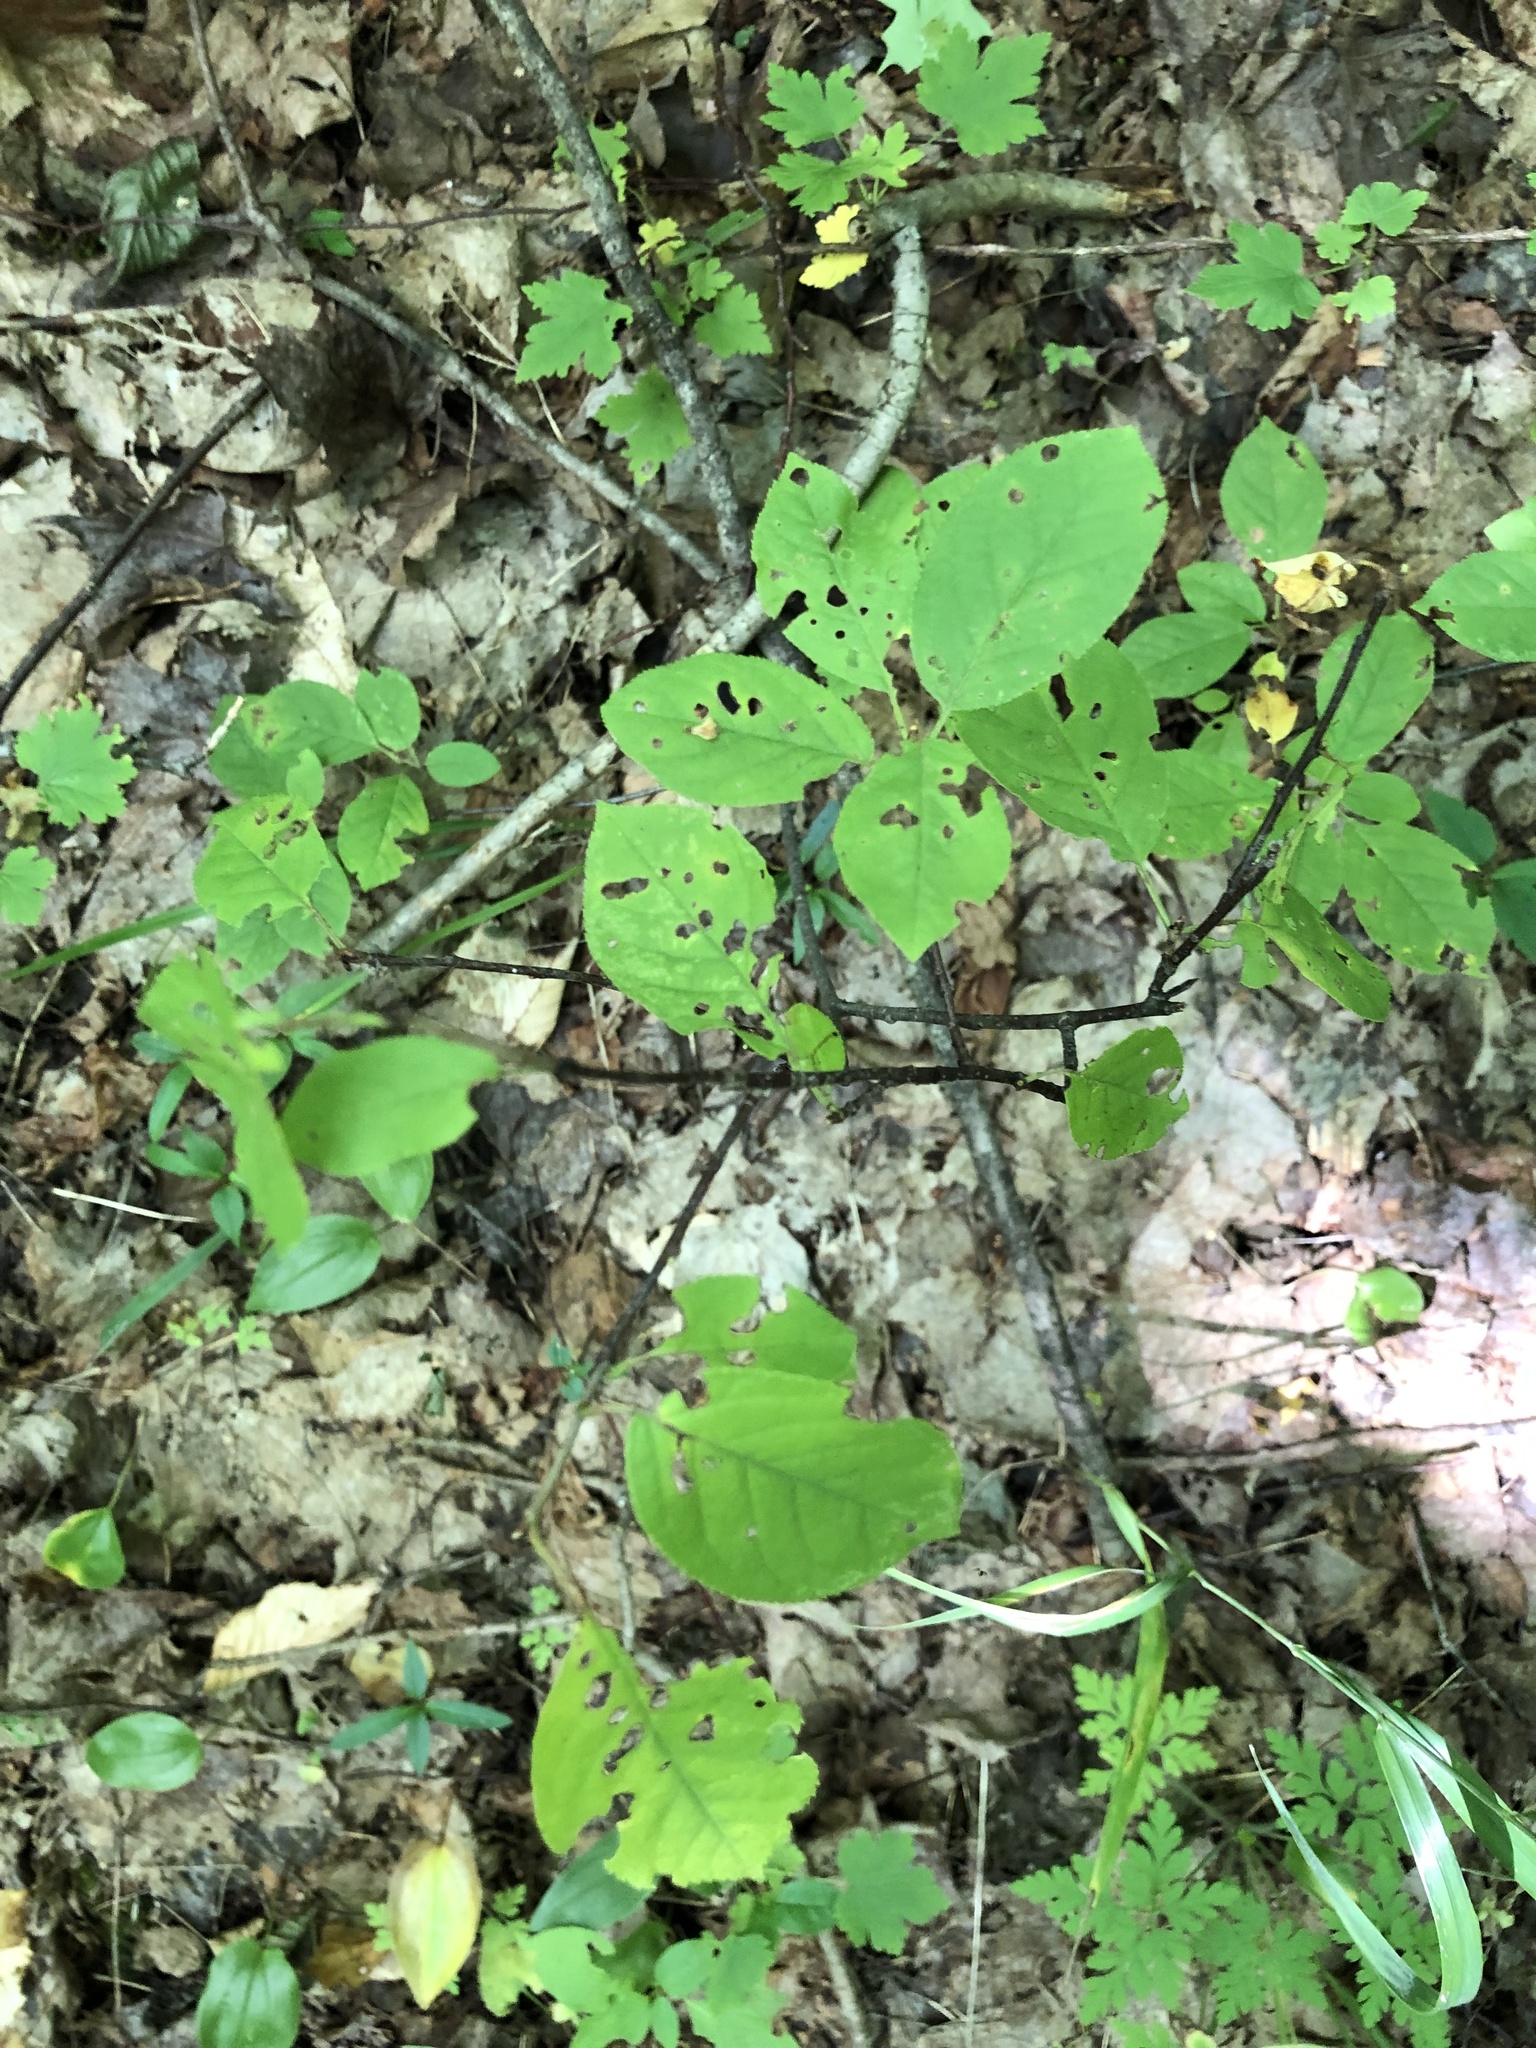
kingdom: Plantae
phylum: Tracheophyta
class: Magnoliopsida
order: Rosales
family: Rosaceae
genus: Prunus
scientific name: Prunus virginiana
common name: Chokecherry
